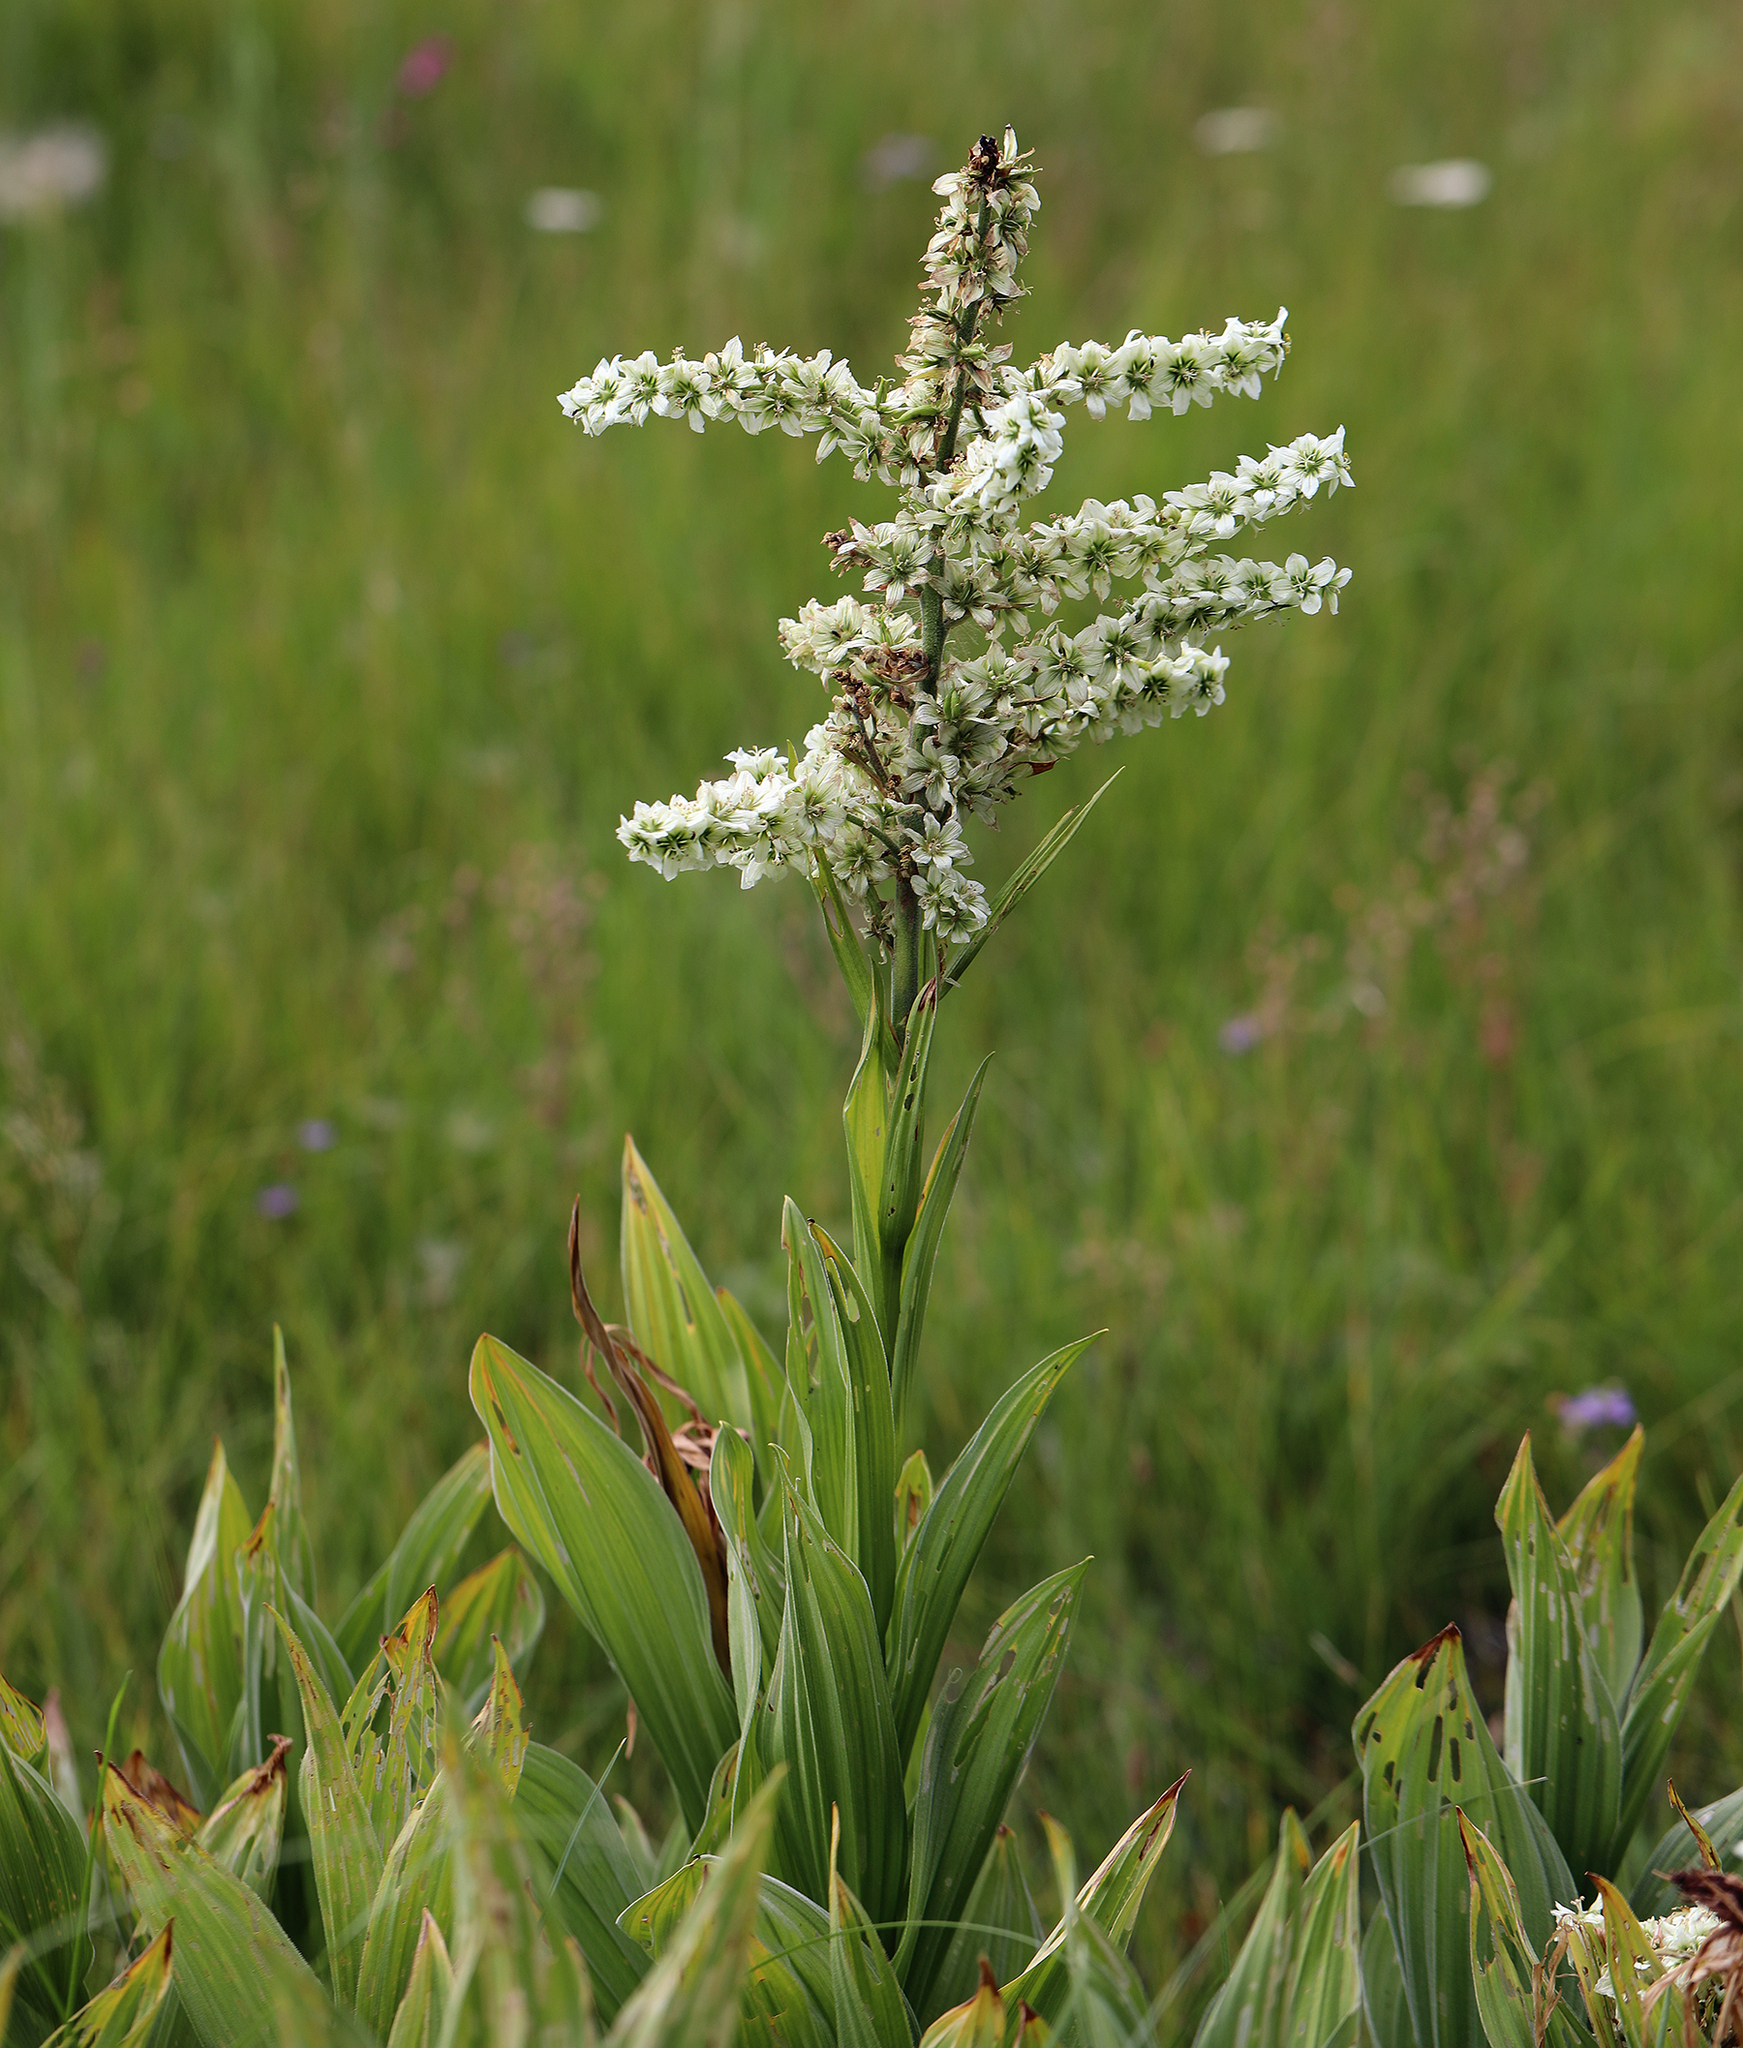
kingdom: Plantae
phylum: Tracheophyta
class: Liliopsida
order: Liliales
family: Melanthiaceae
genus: Veratrum
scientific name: Veratrum californicum
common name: California veratrum
